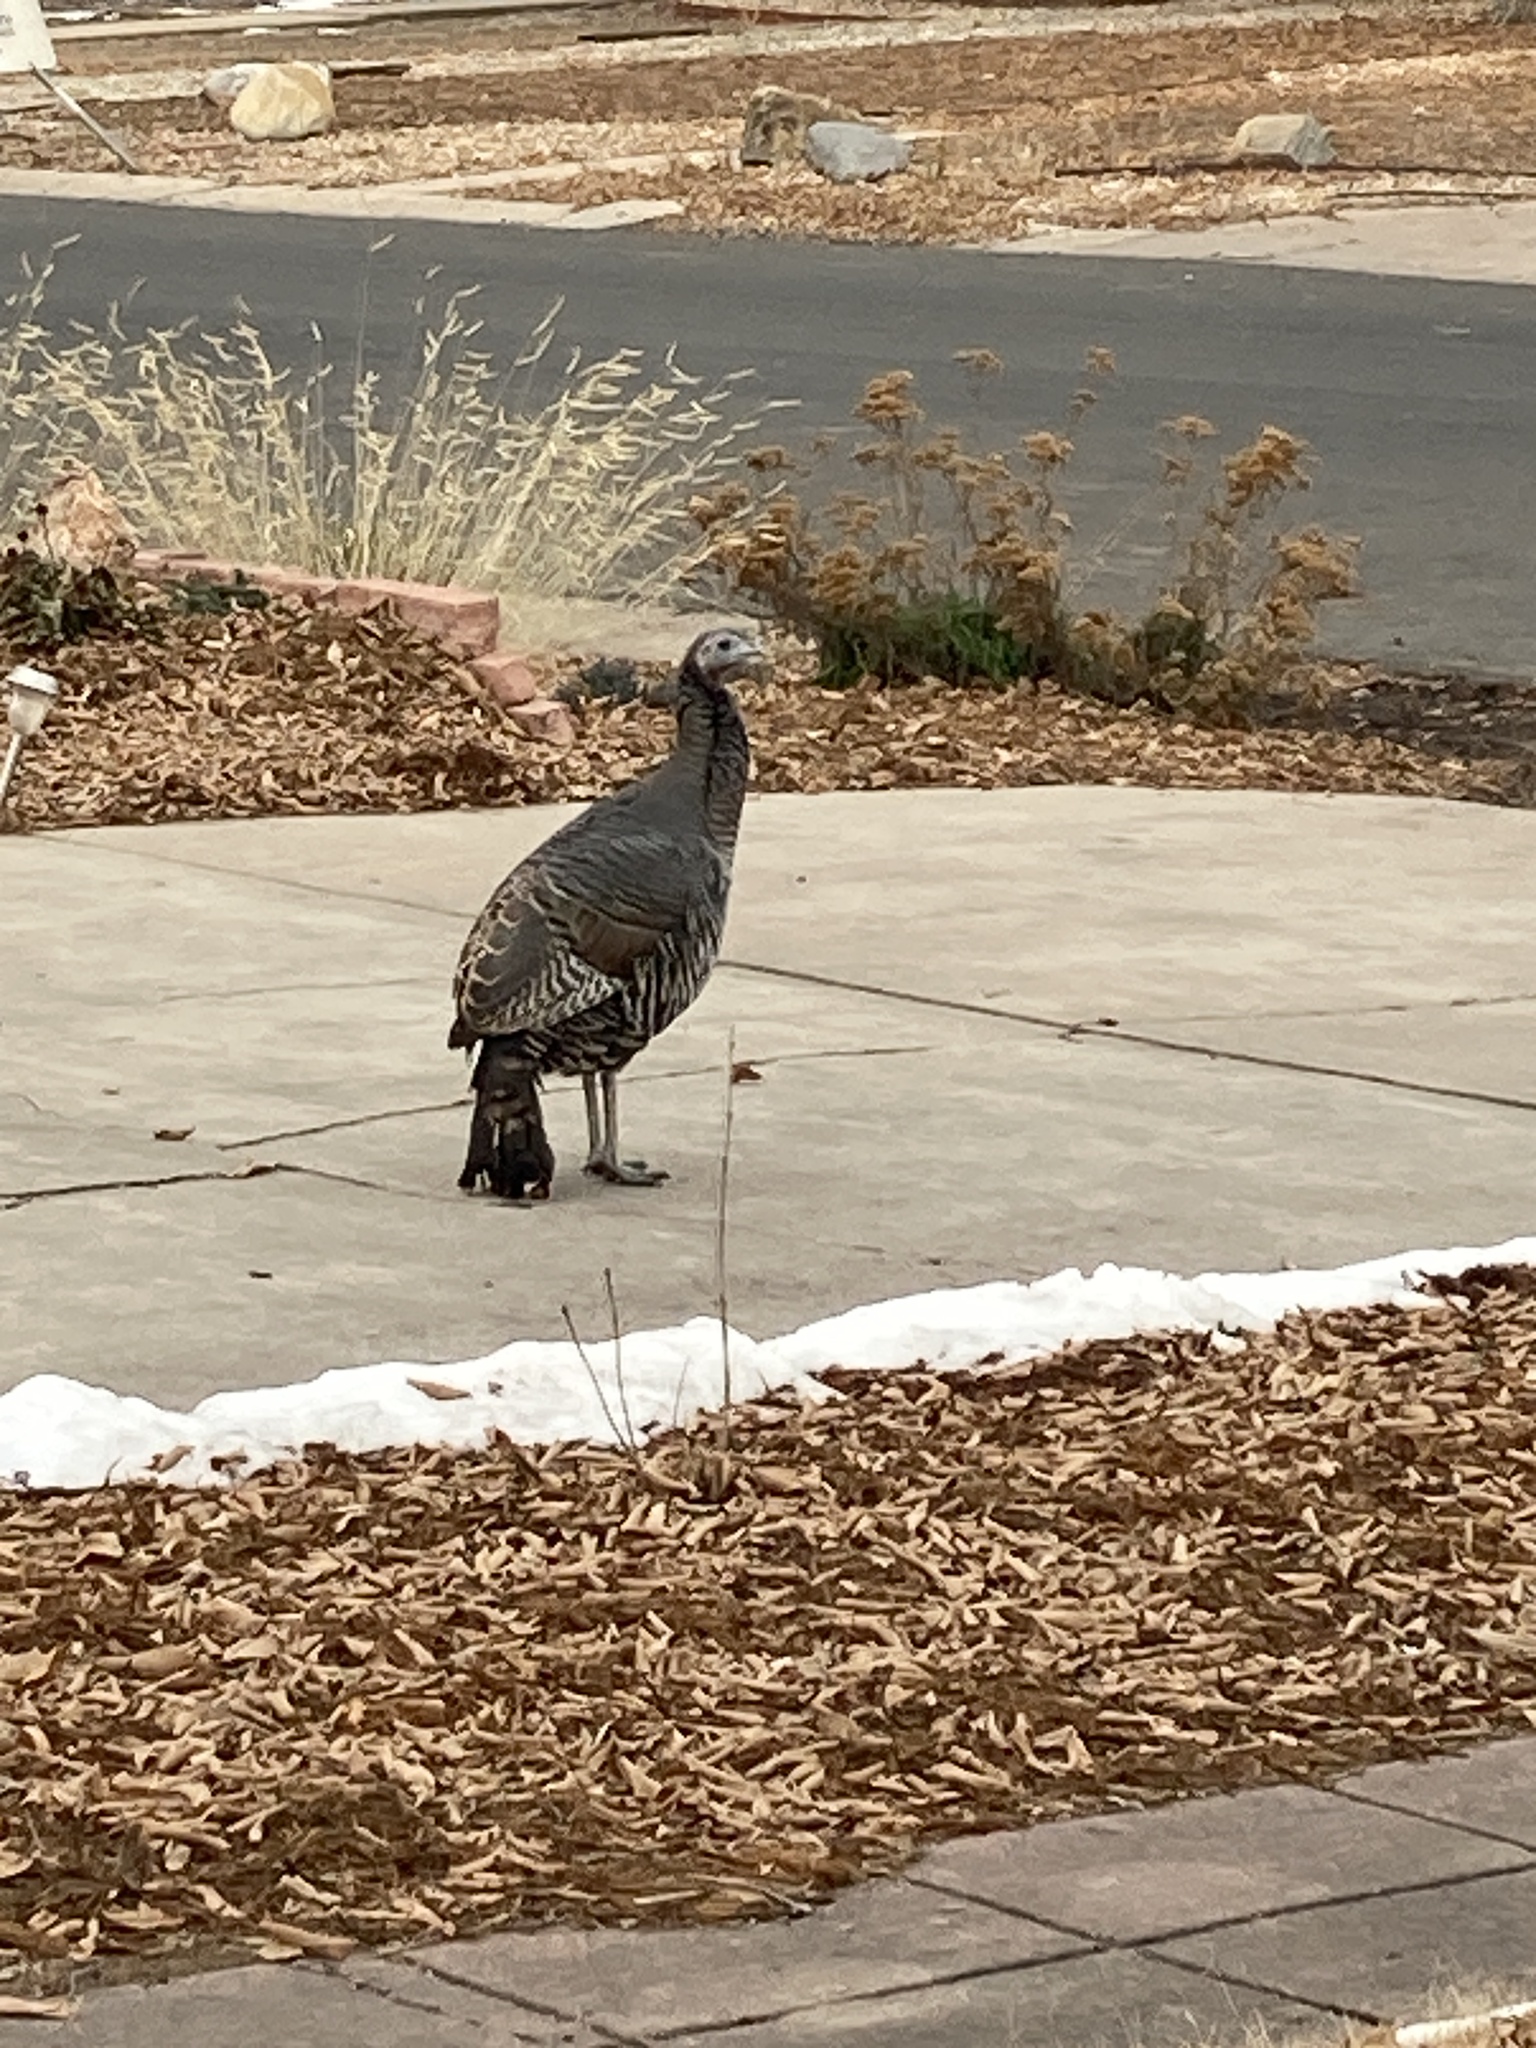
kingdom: Animalia
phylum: Chordata
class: Aves
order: Galliformes
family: Phasianidae
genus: Meleagris
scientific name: Meleagris gallopavo
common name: Wild turkey
